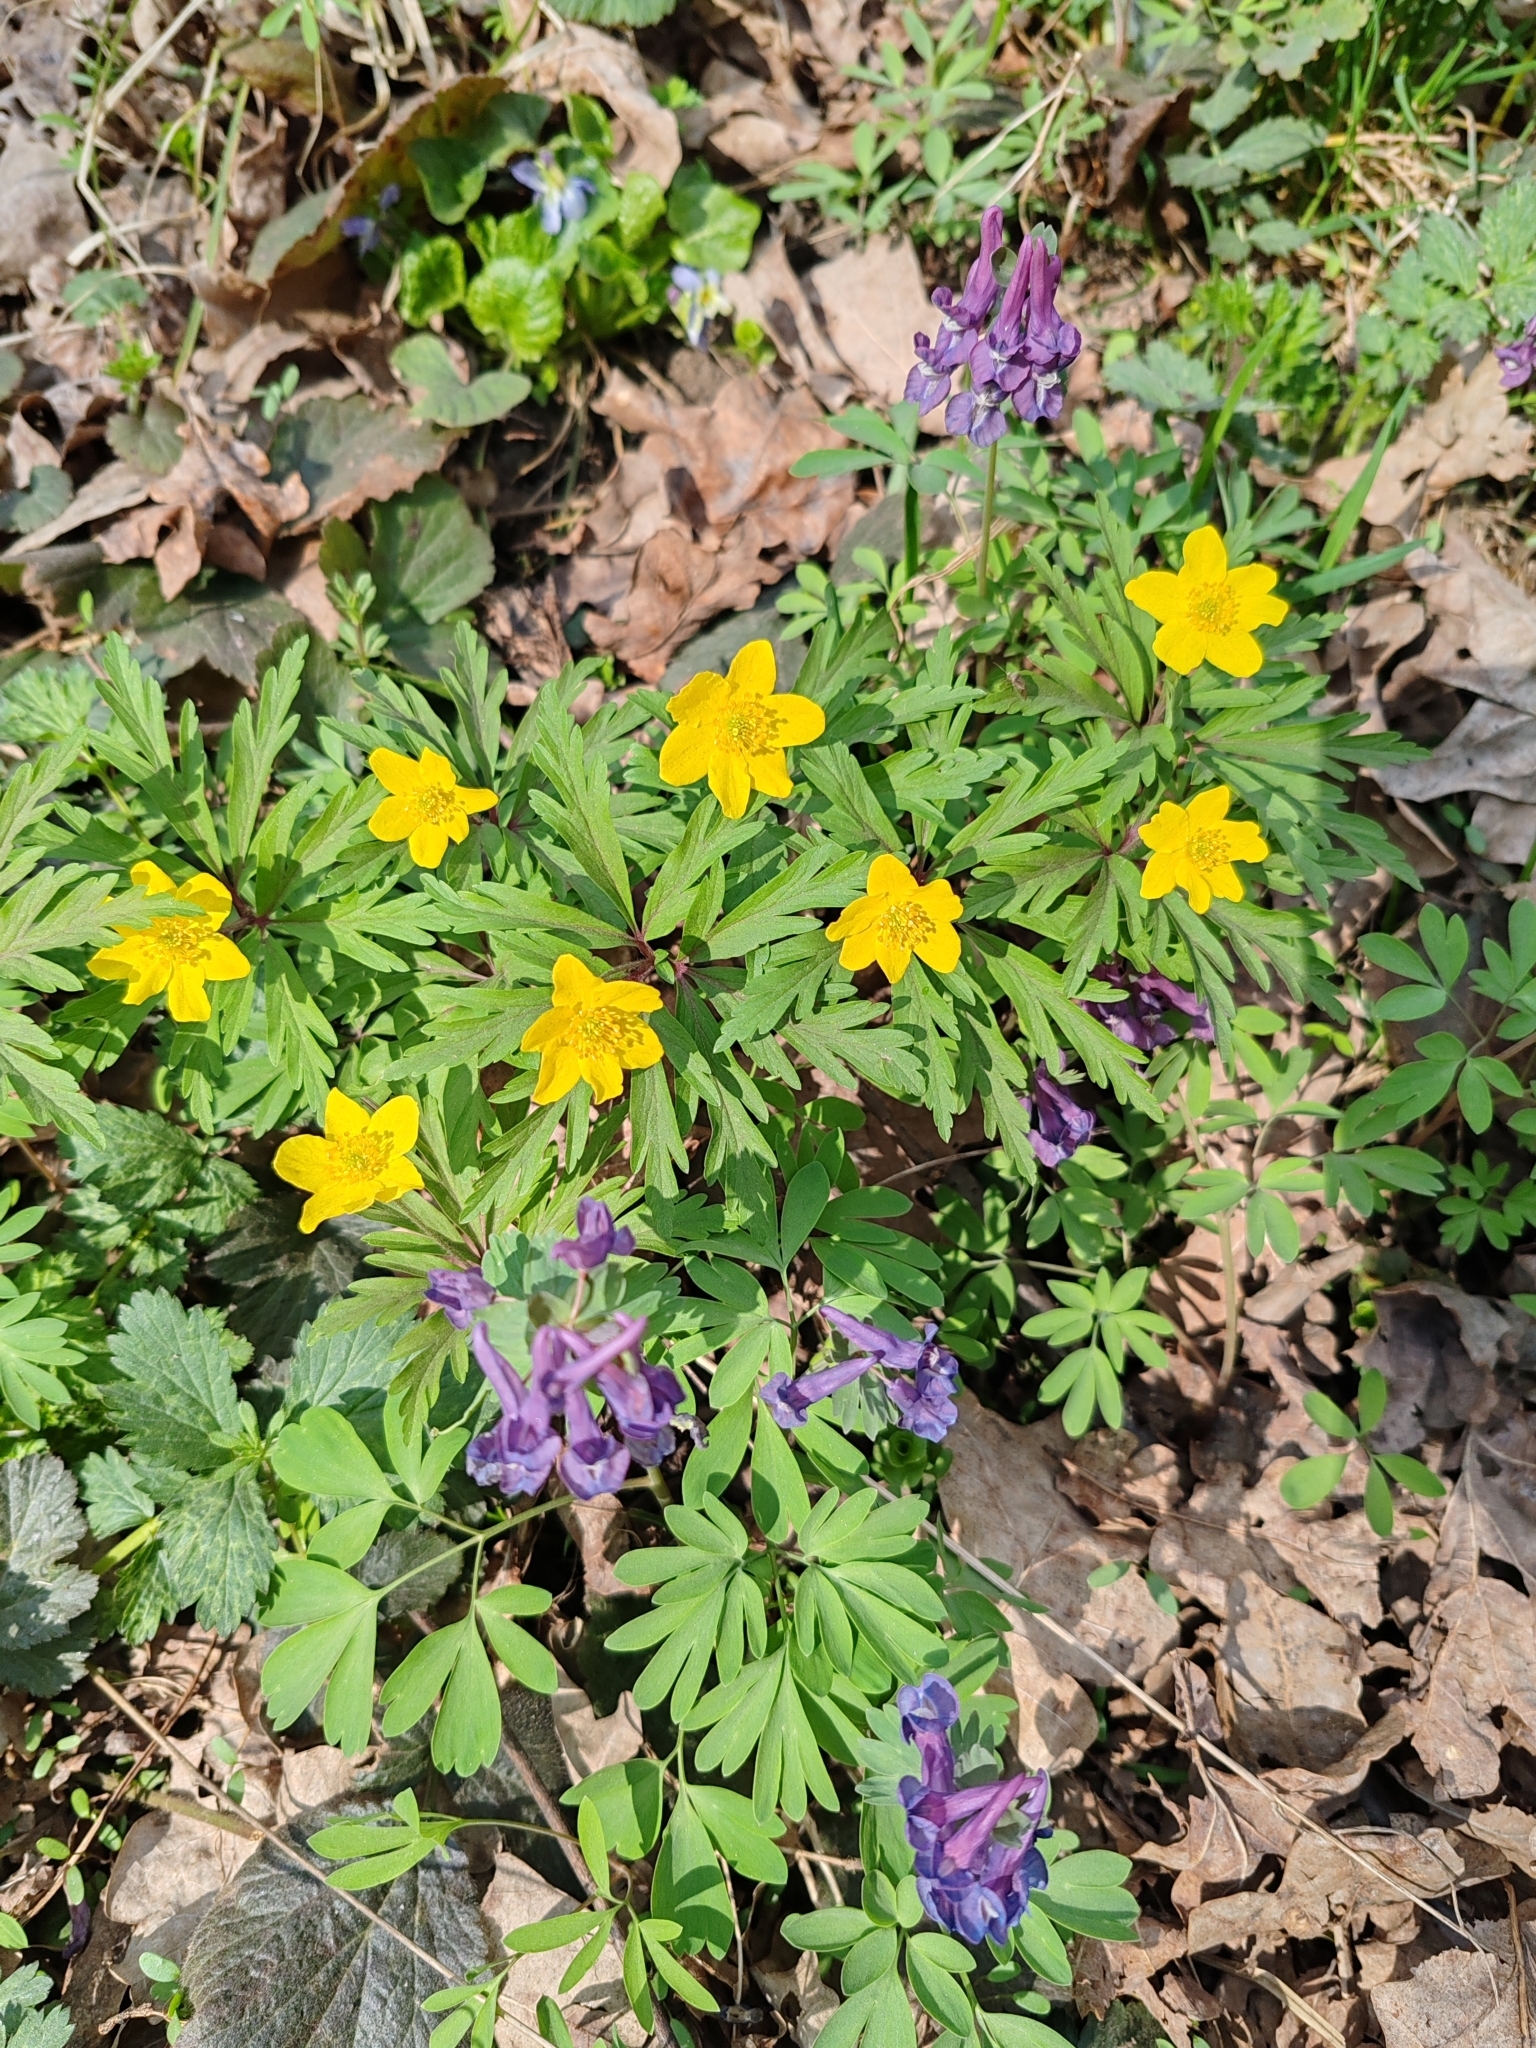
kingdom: Plantae
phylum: Tracheophyta
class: Magnoliopsida
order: Ranunculales
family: Ranunculaceae
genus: Anemone
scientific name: Anemone ranunculoides
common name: Yellow anemone
